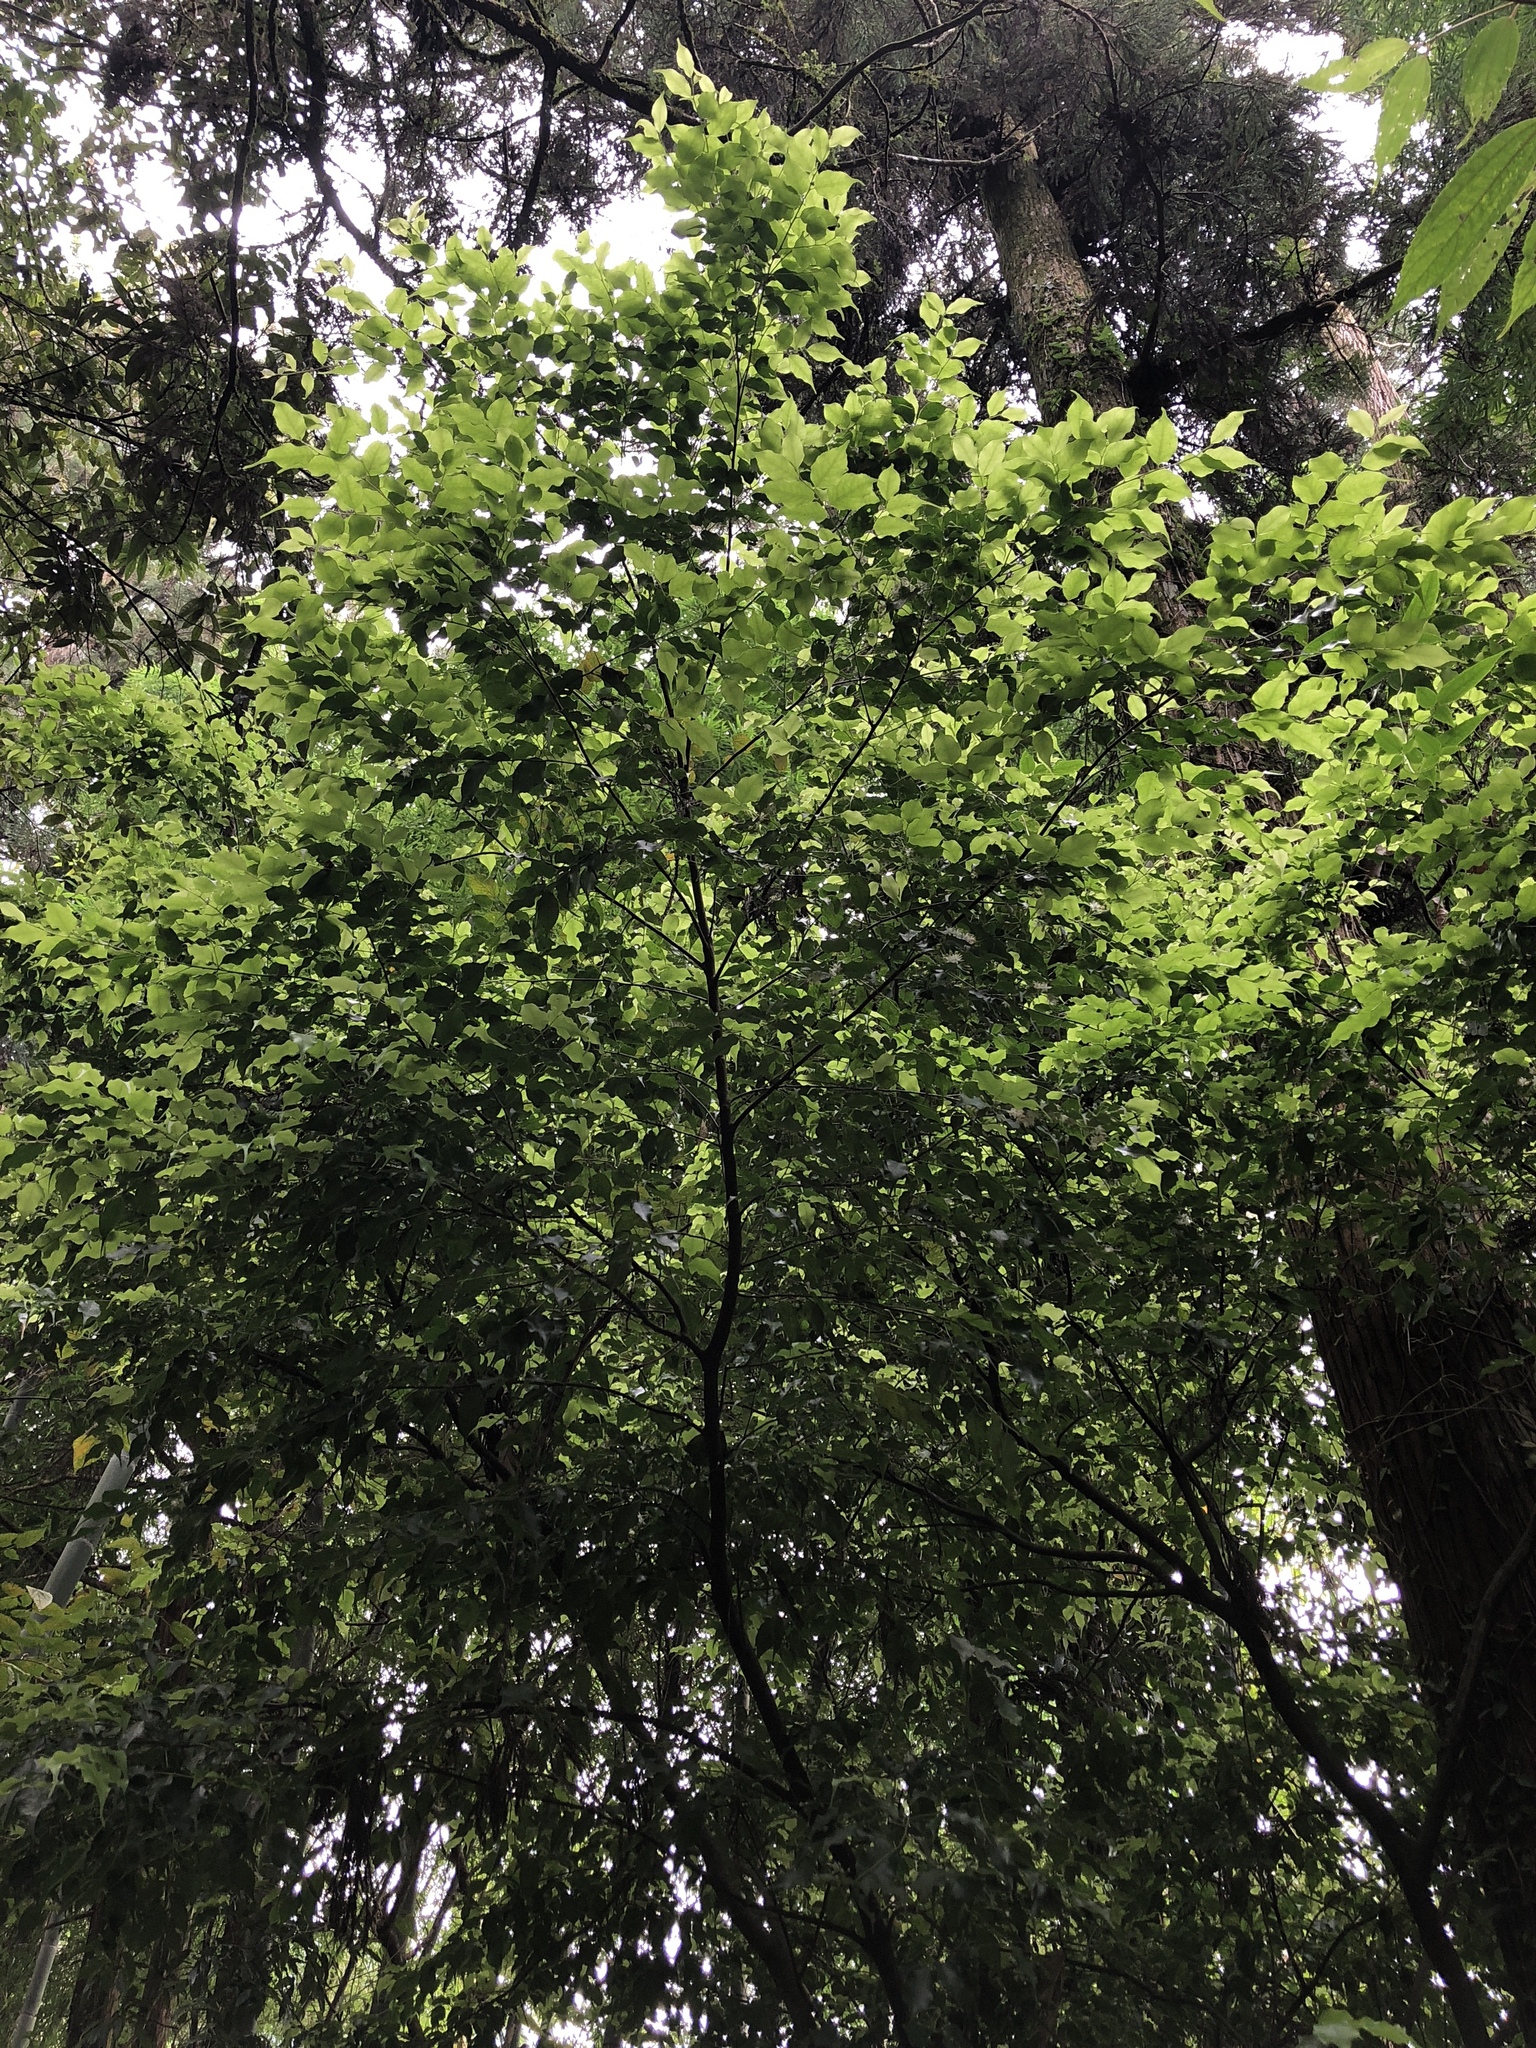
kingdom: Plantae
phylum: Tracheophyta
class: Magnoliopsida
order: Ericales
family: Symplocaceae
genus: Symplocos
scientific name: Symplocos sumuntia
